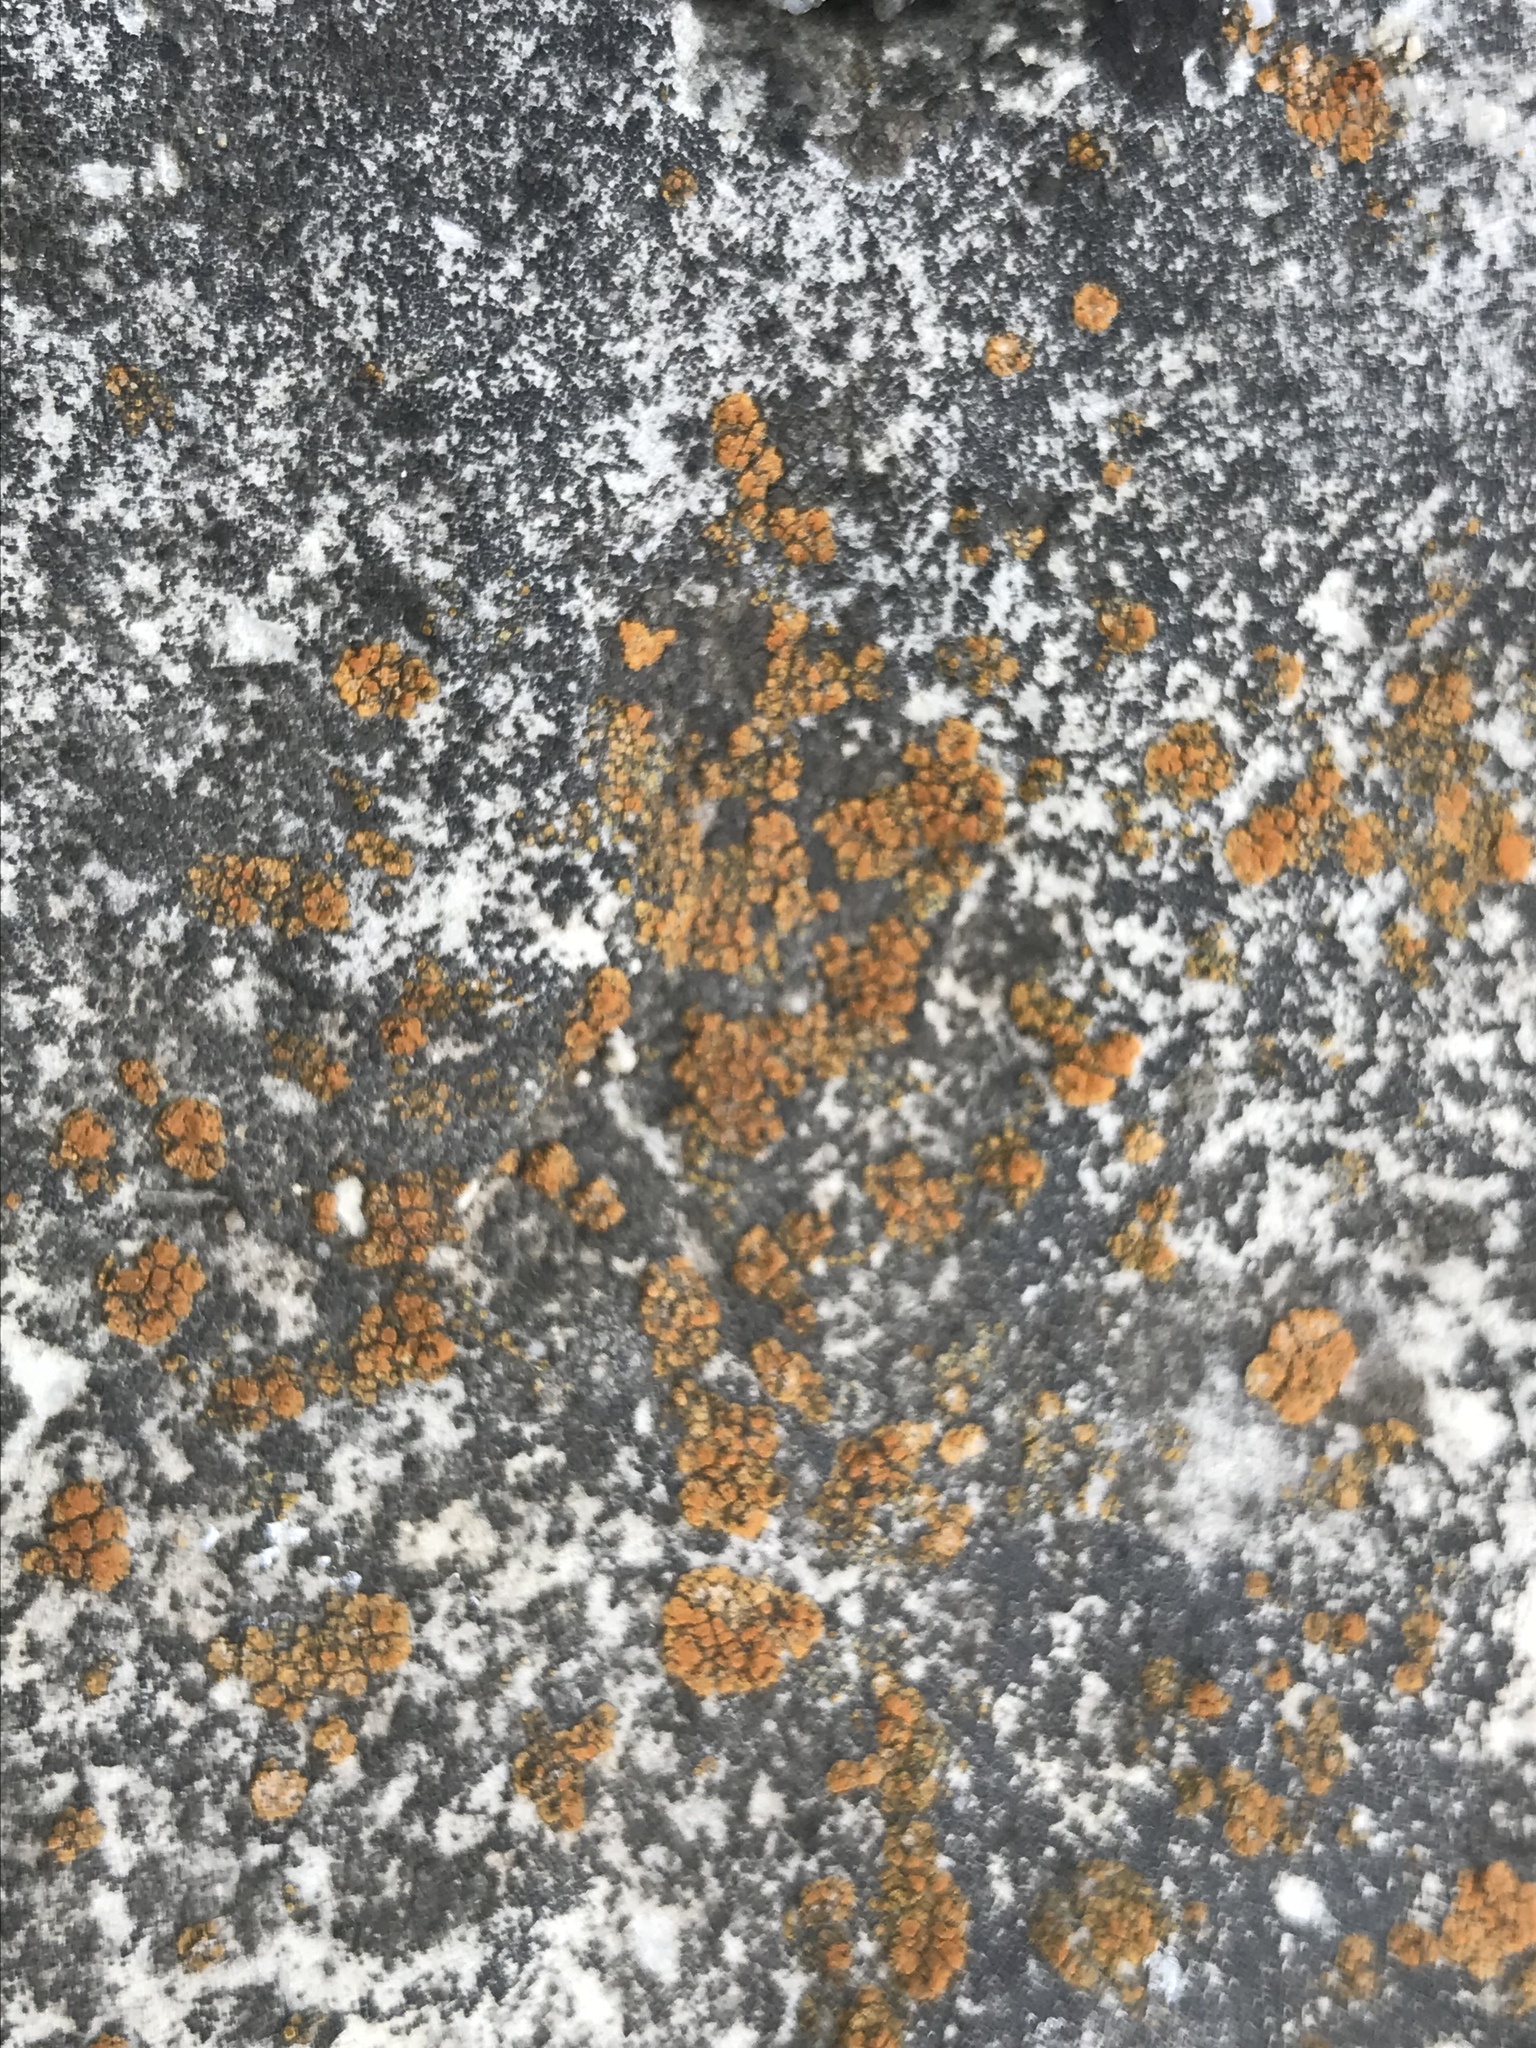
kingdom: Fungi
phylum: Ascomycota
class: Lecanoromycetes
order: Teloschistales
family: Teloschistaceae
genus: Xanthocarpia
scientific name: Xanthocarpia feracissima
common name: Sidewalk firedot
